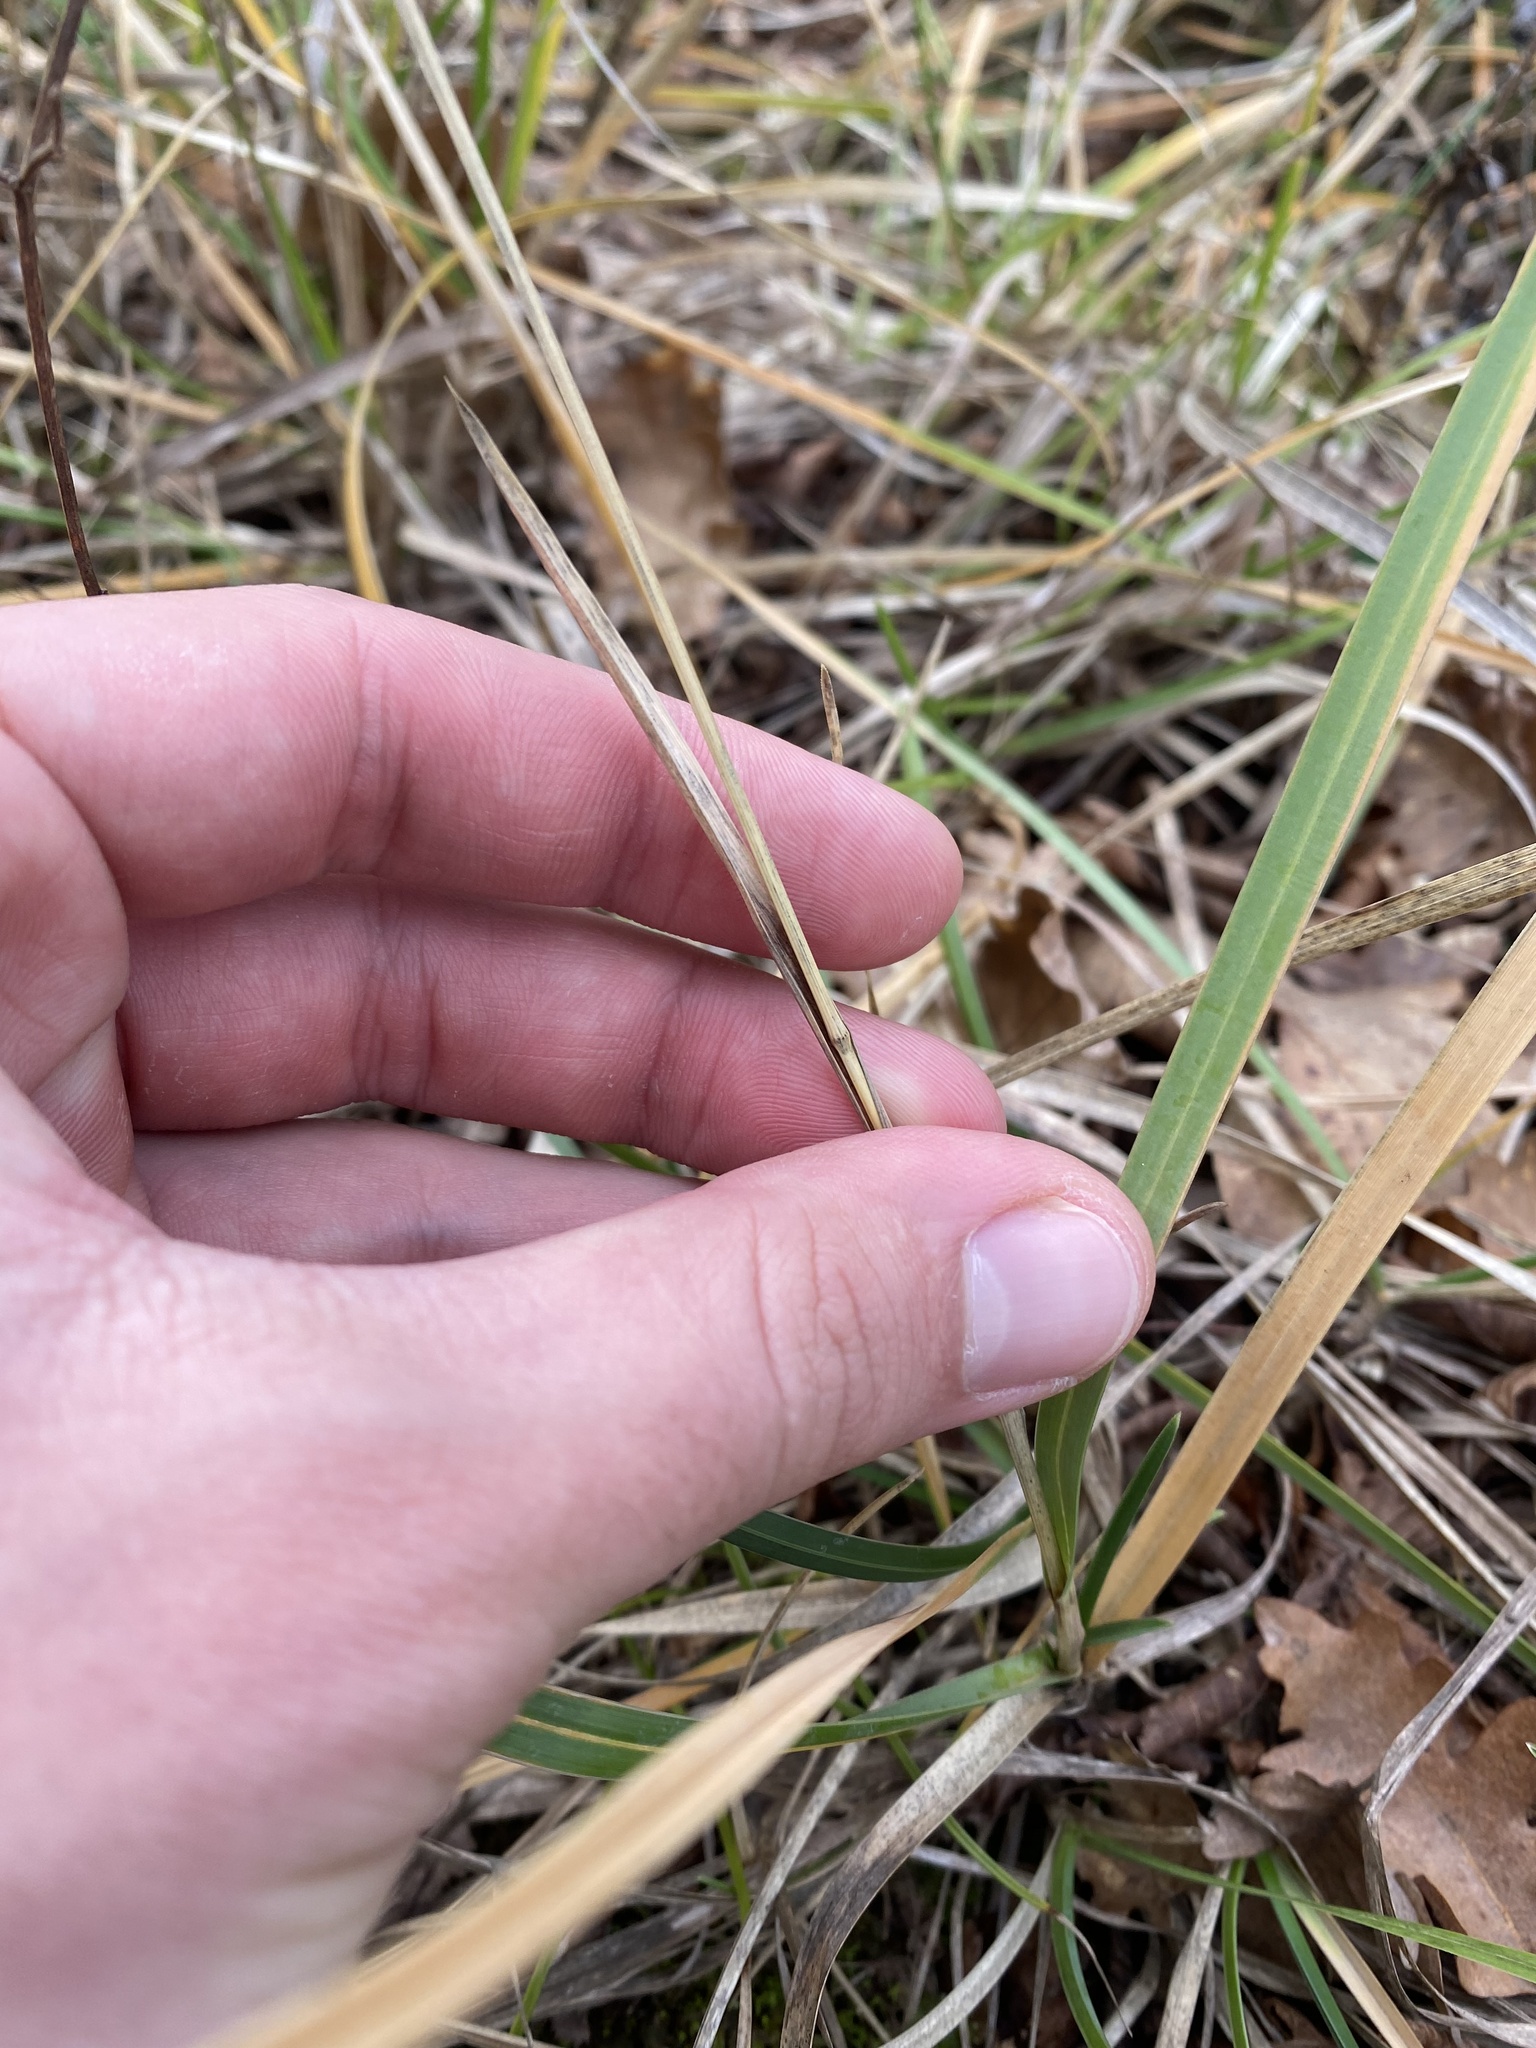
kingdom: Plantae
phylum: Tracheophyta
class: Liliopsida
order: Poales
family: Poaceae
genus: Sesleria
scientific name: Sesleria alba
